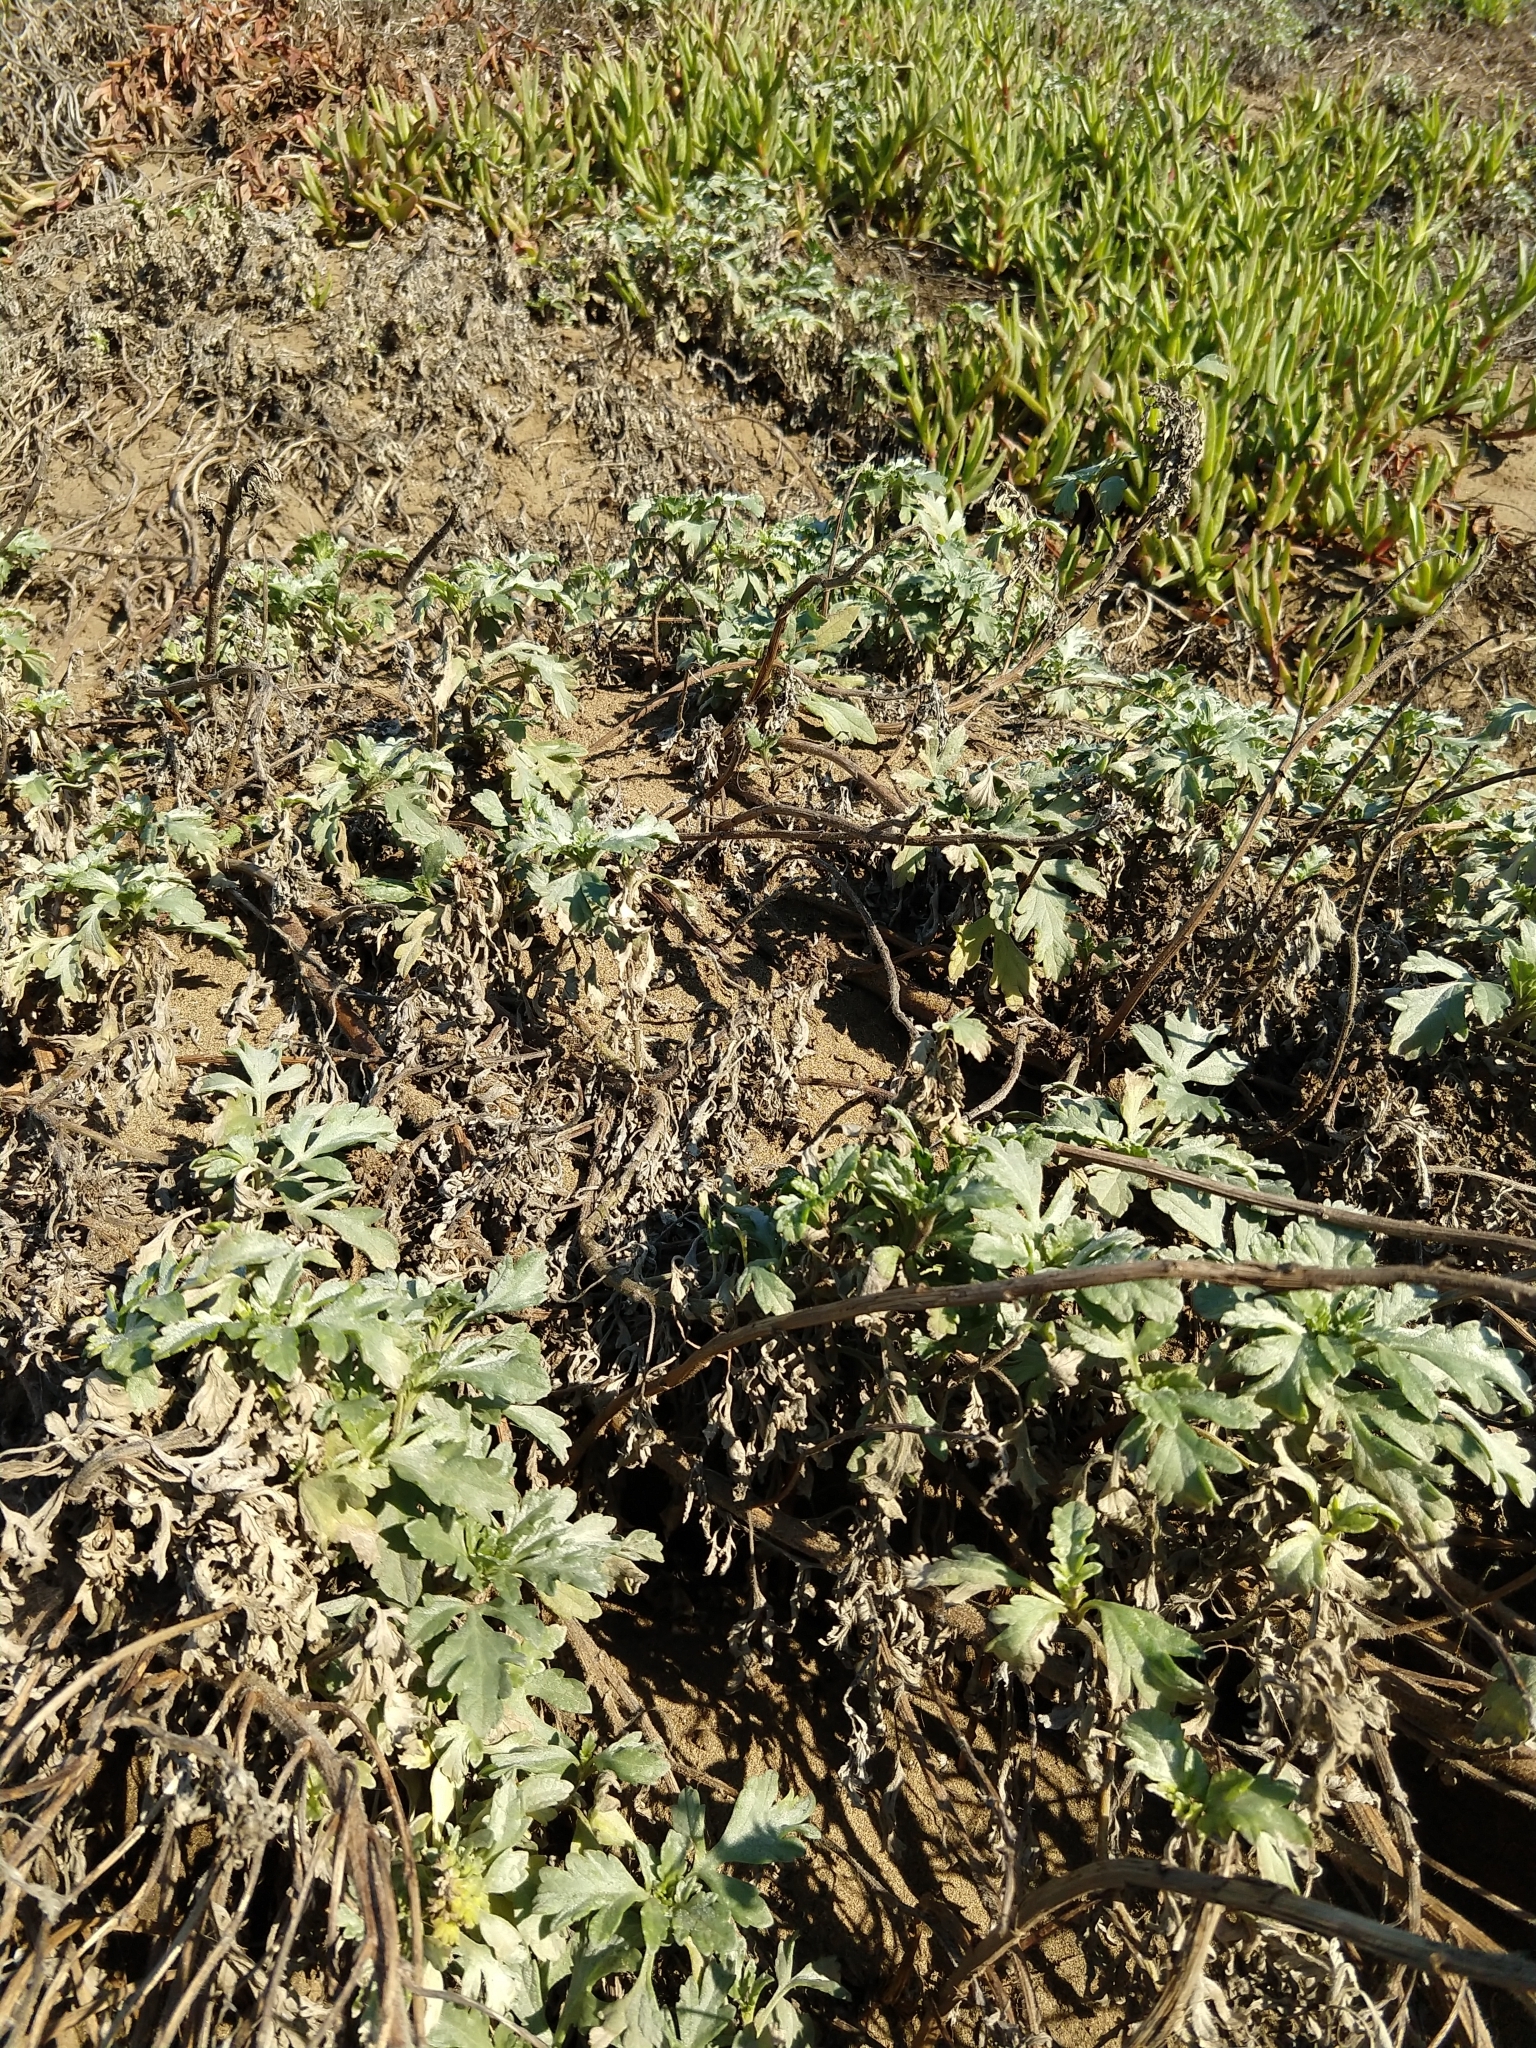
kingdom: Plantae
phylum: Tracheophyta
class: Magnoliopsida
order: Asterales
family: Asteraceae
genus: Ambrosia
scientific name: Ambrosia chamissonis
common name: Beachbur
